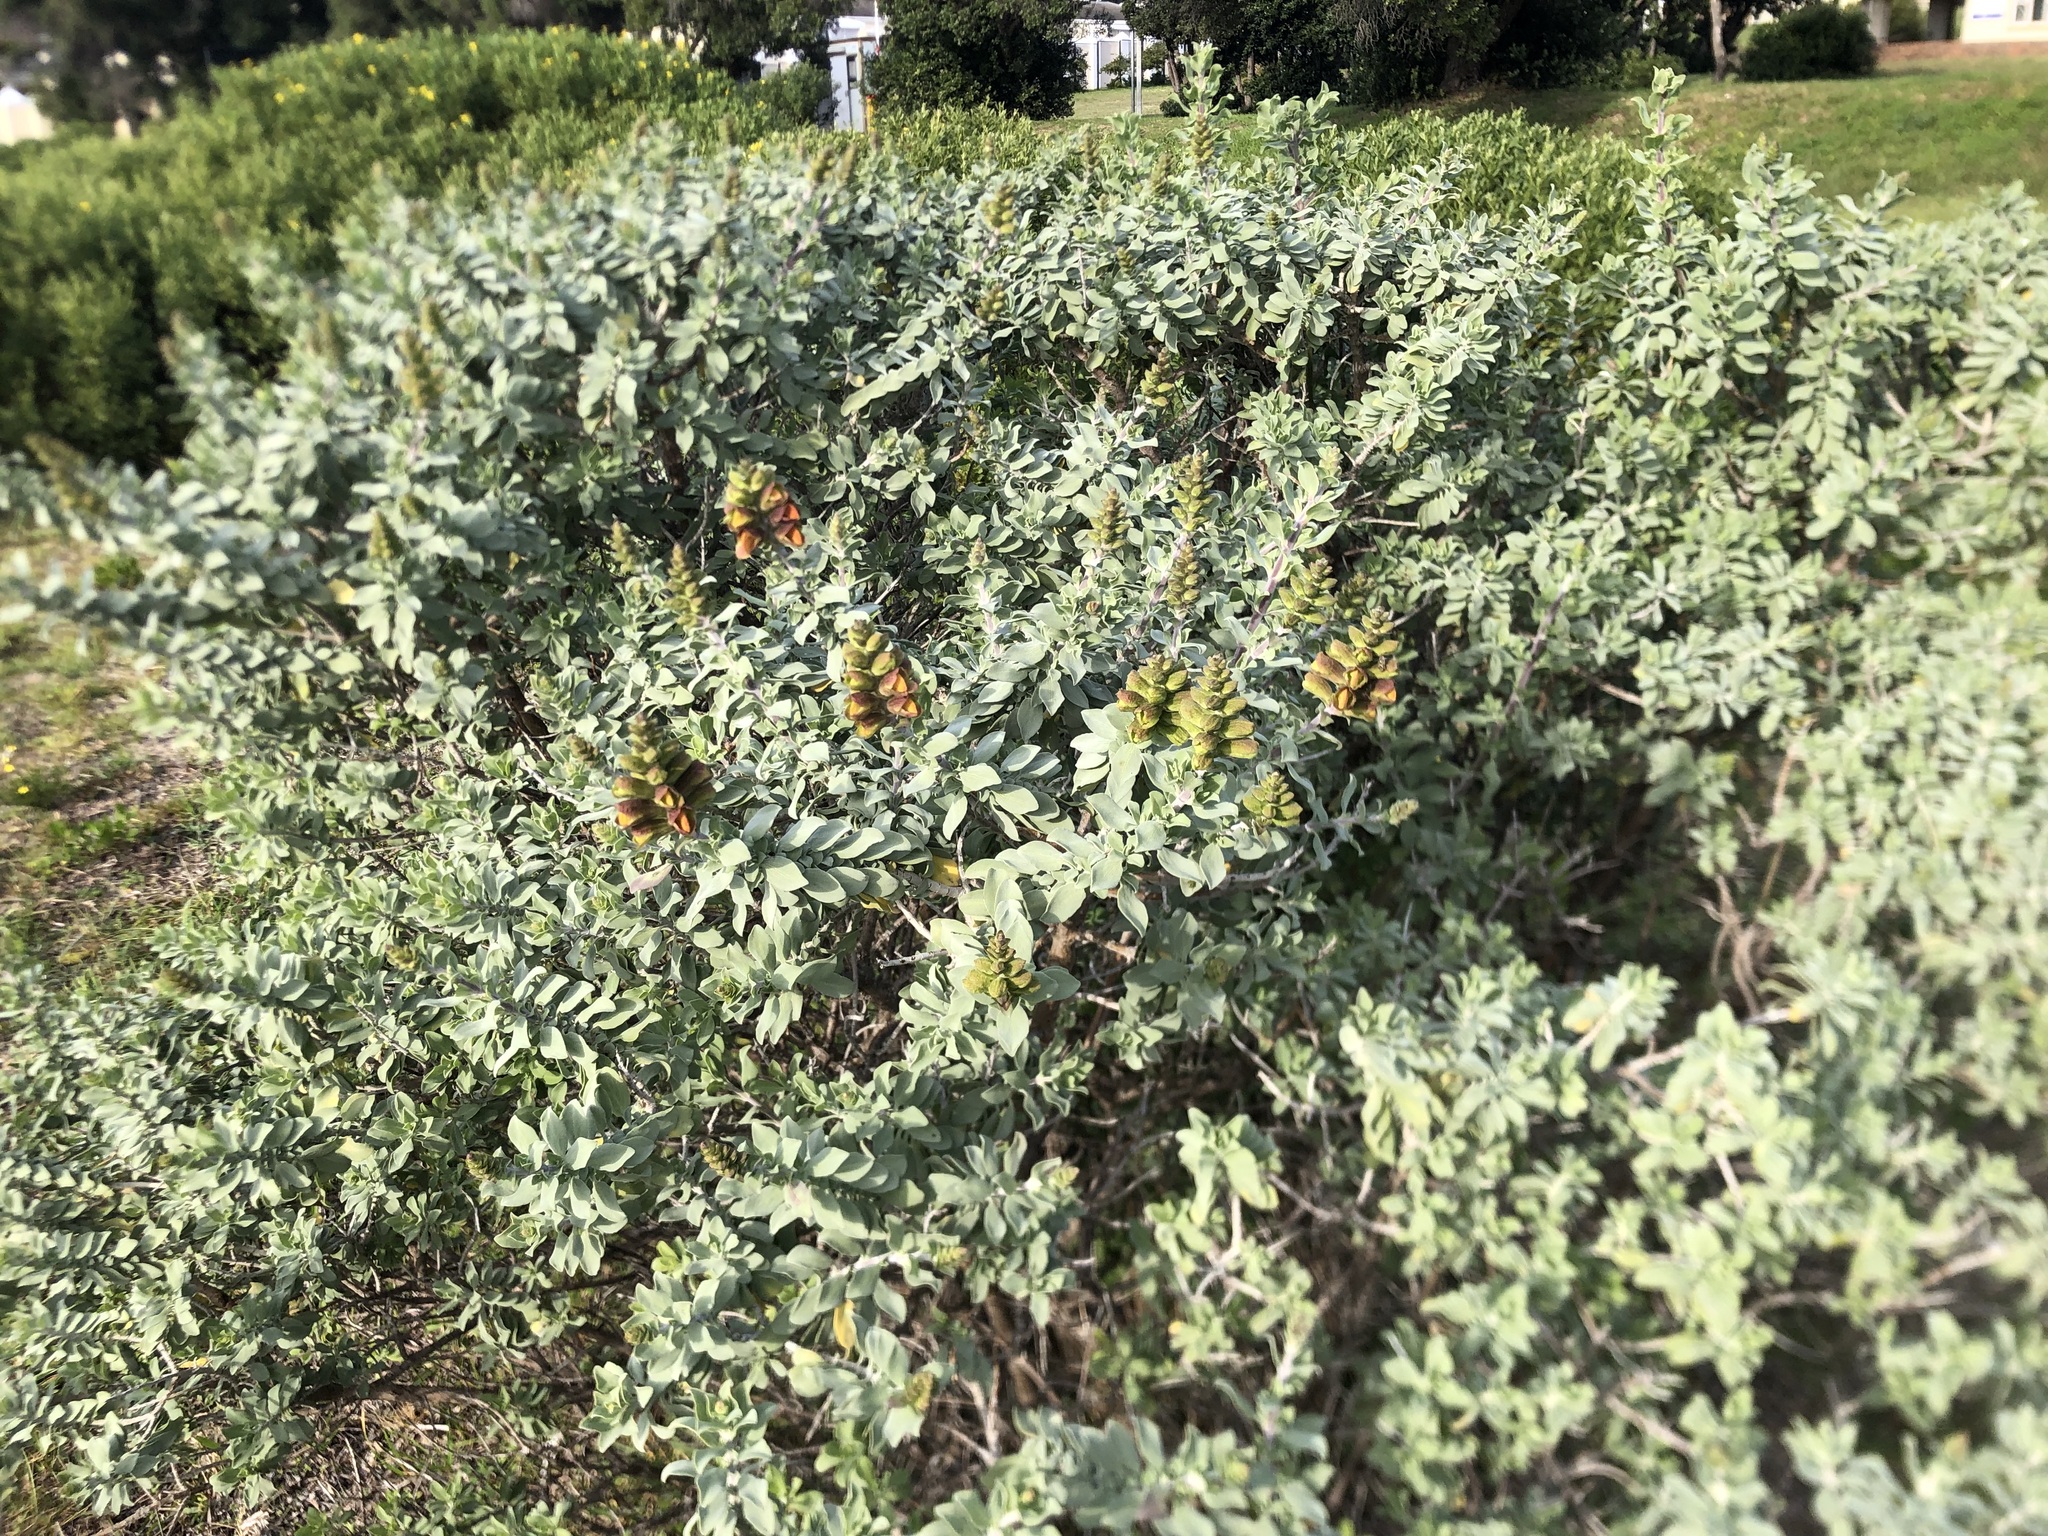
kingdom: Plantae
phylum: Tracheophyta
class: Magnoliopsida
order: Lamiales
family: Lamiaceae
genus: Salvia
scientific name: Salvia aurea
